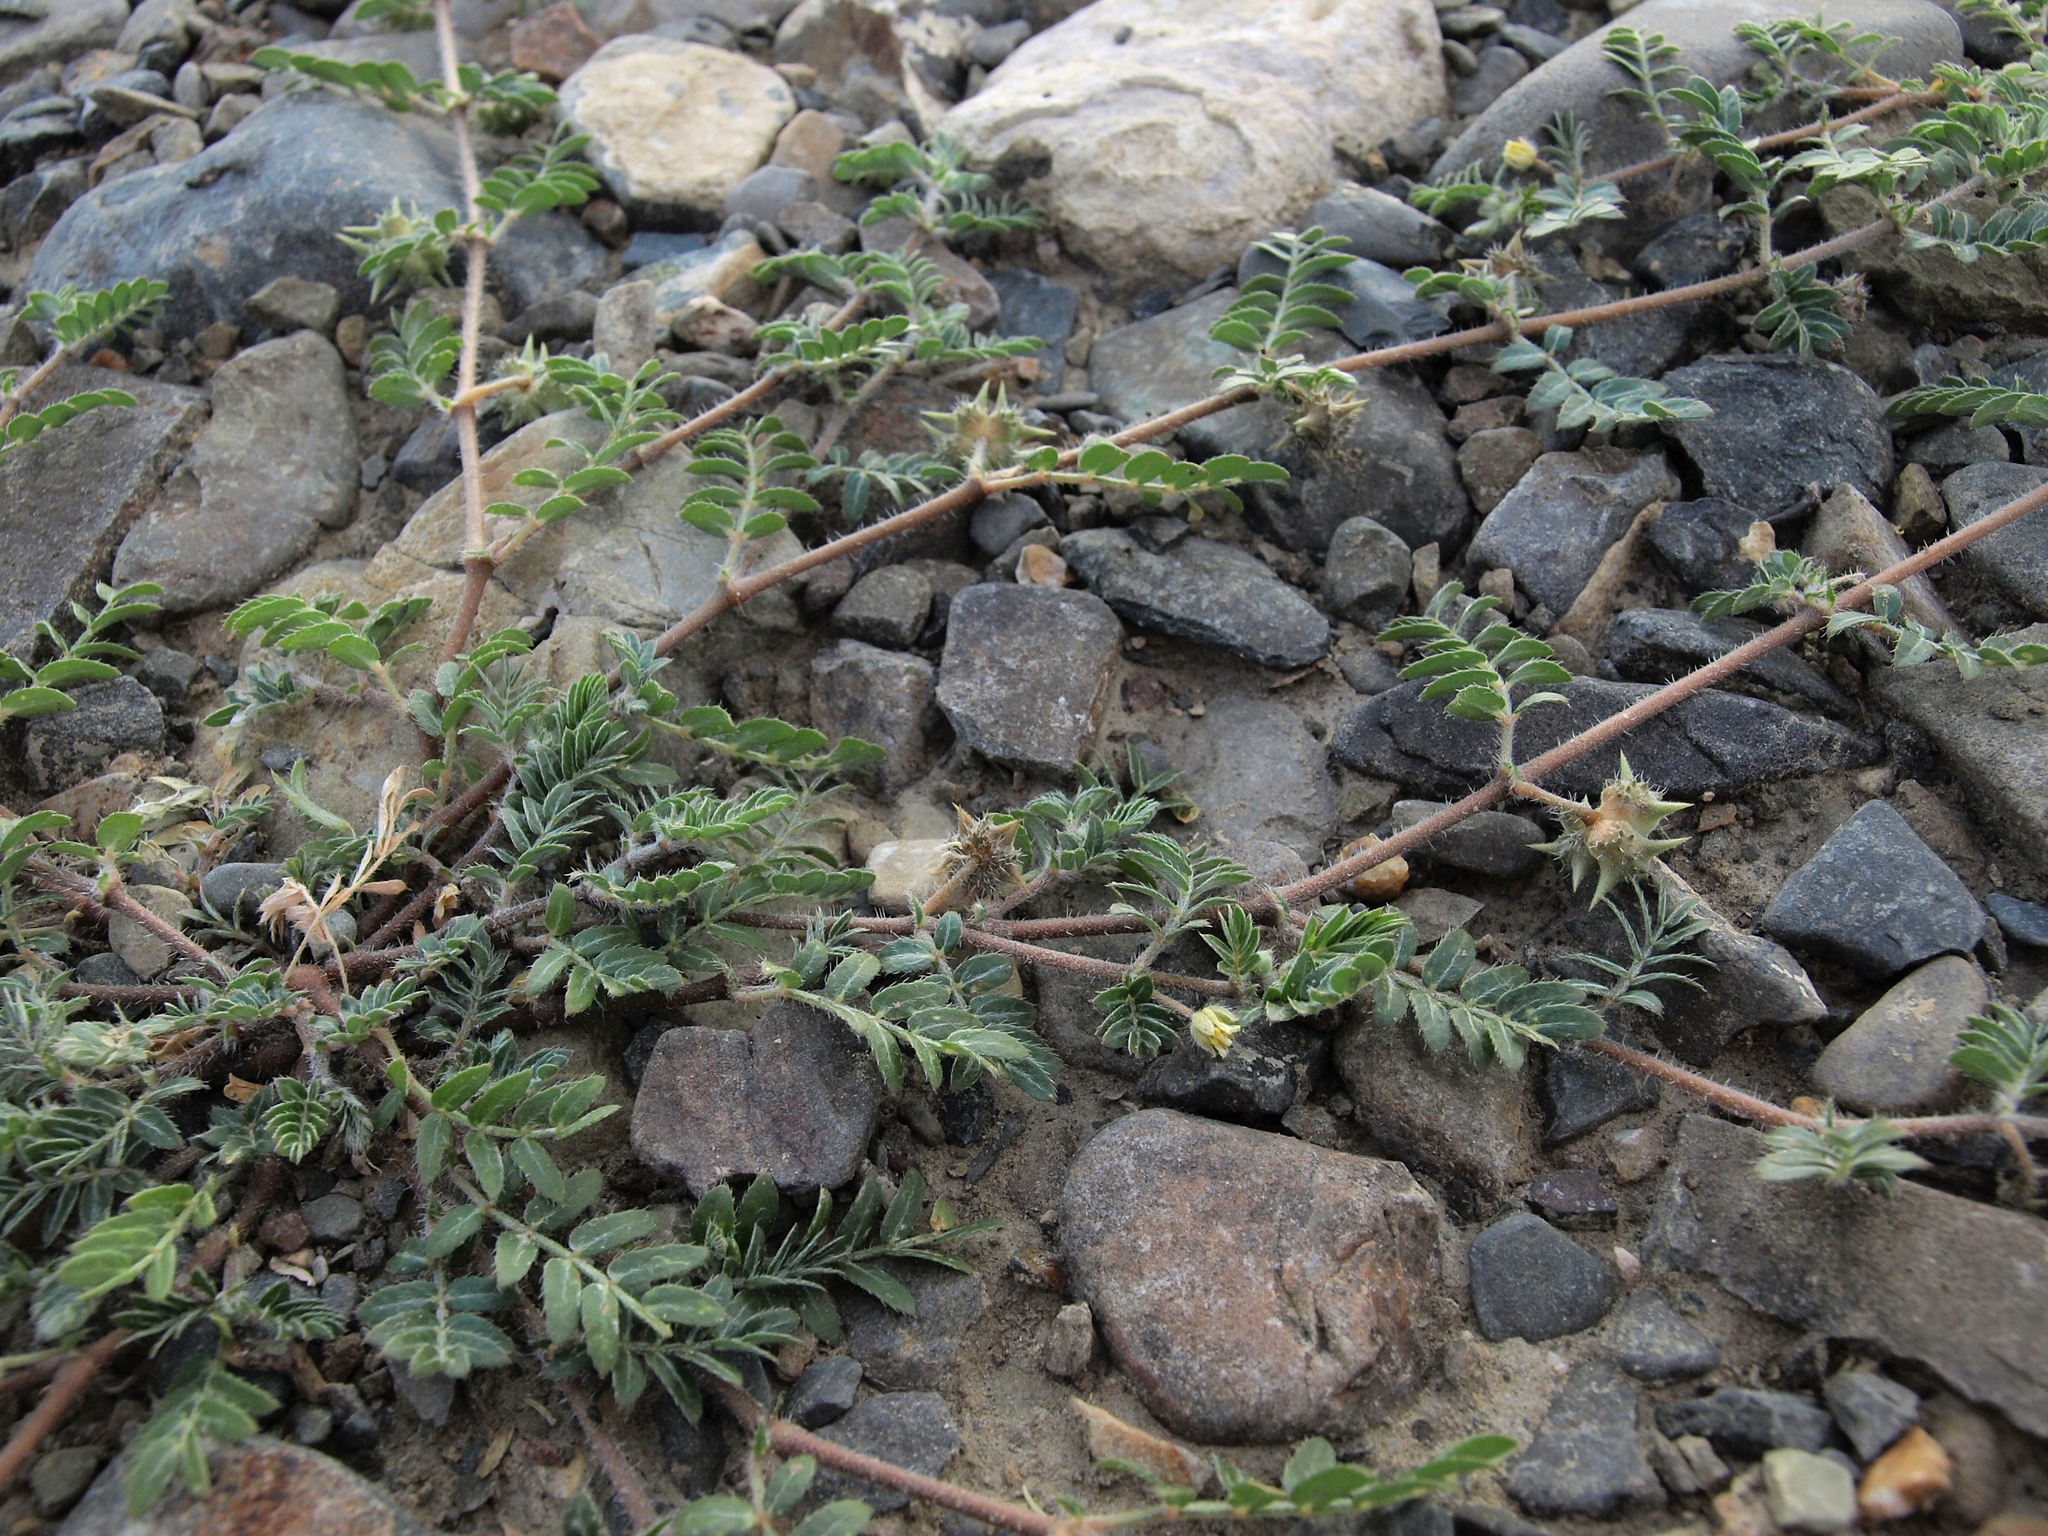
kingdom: Plantae
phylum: Tracheophyta
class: Magnoliopsida
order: Zygophyllales
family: Zygophyllaceae
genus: Tribulus
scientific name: Tribulus terrestris
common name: Puncturevine
